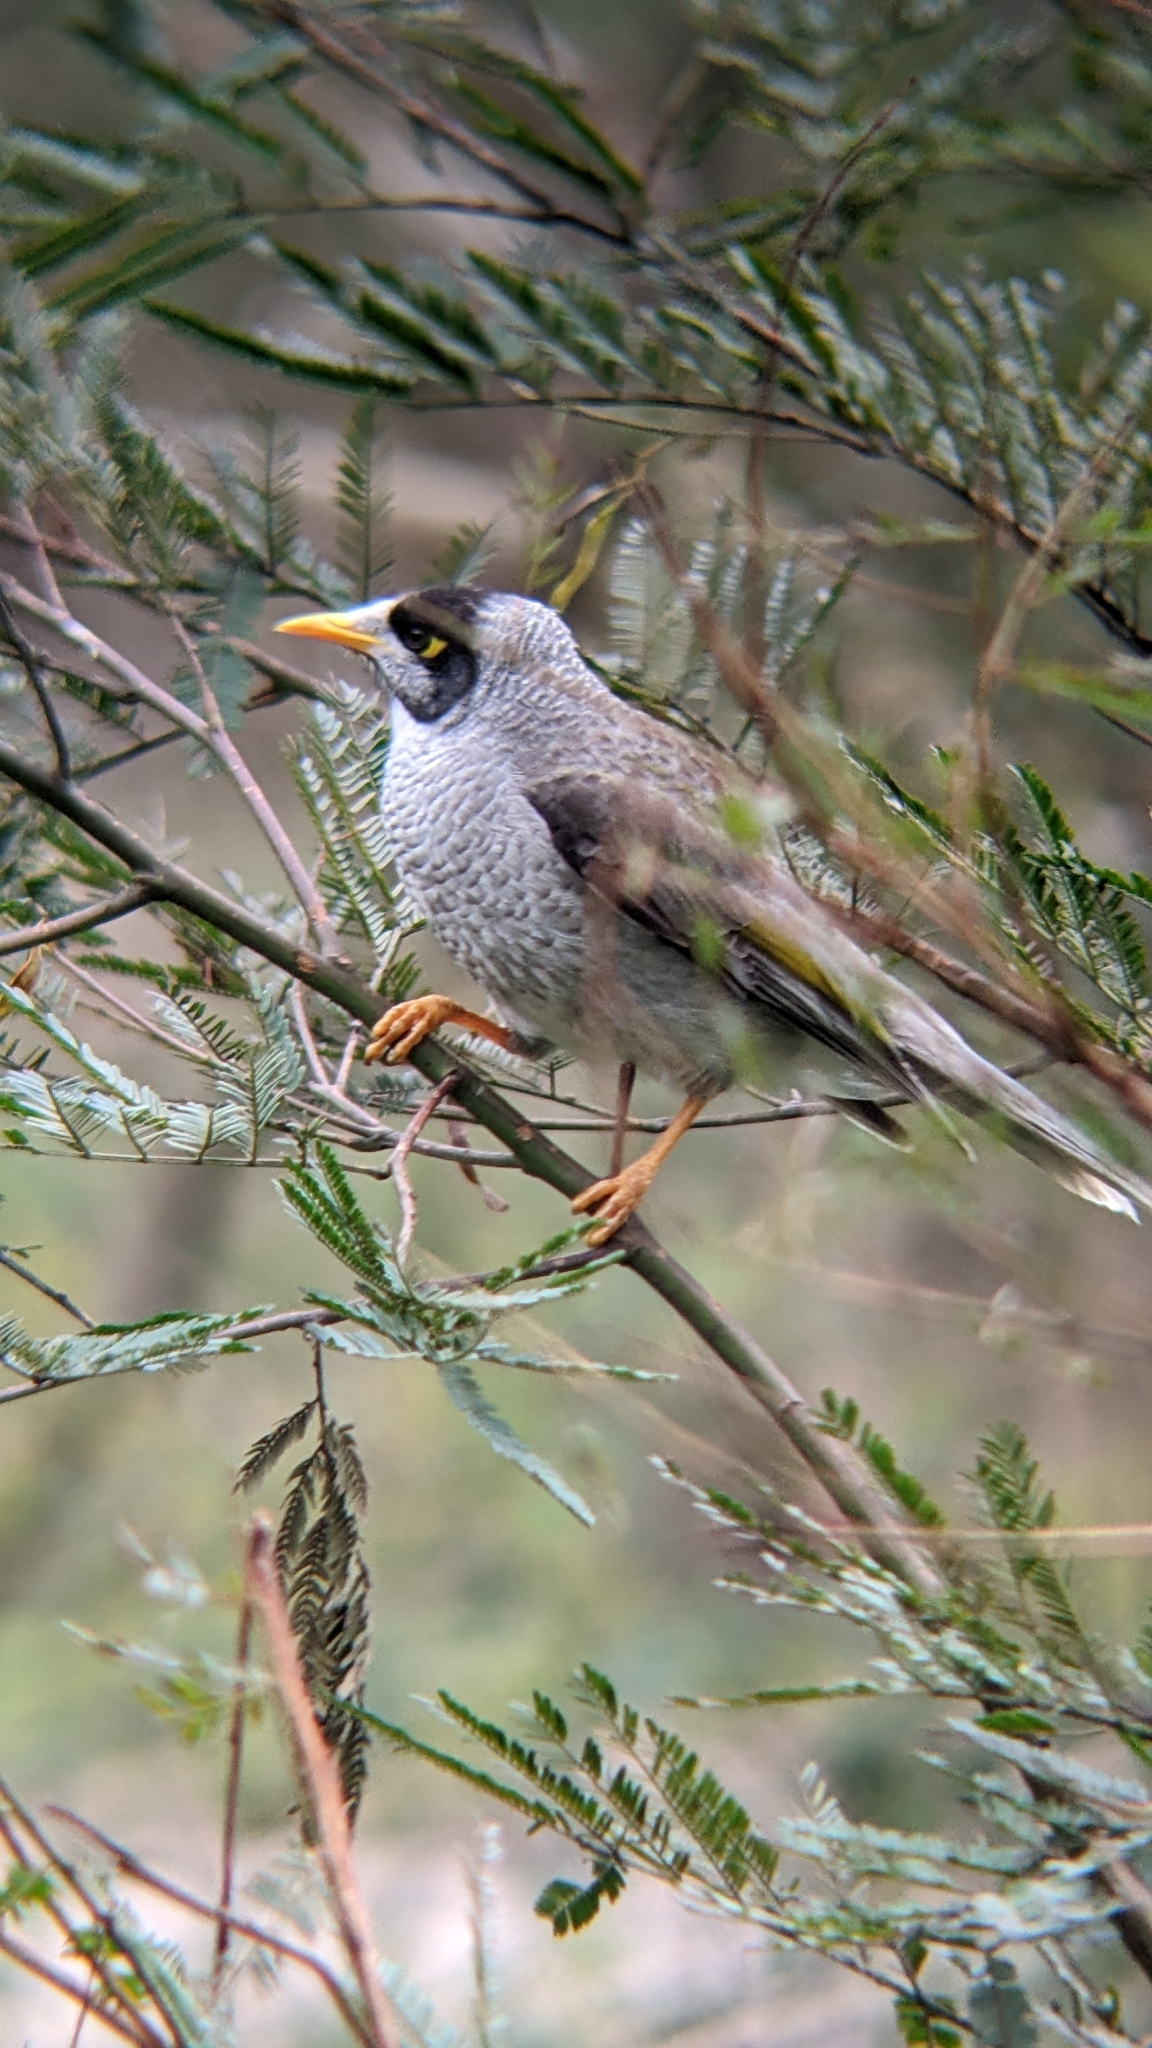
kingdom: Animalia
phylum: Chordata
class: Aves
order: Passeriformes
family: Meliphagidae
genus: Manorina
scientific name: Manorina melanocephala
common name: Noisy miner
